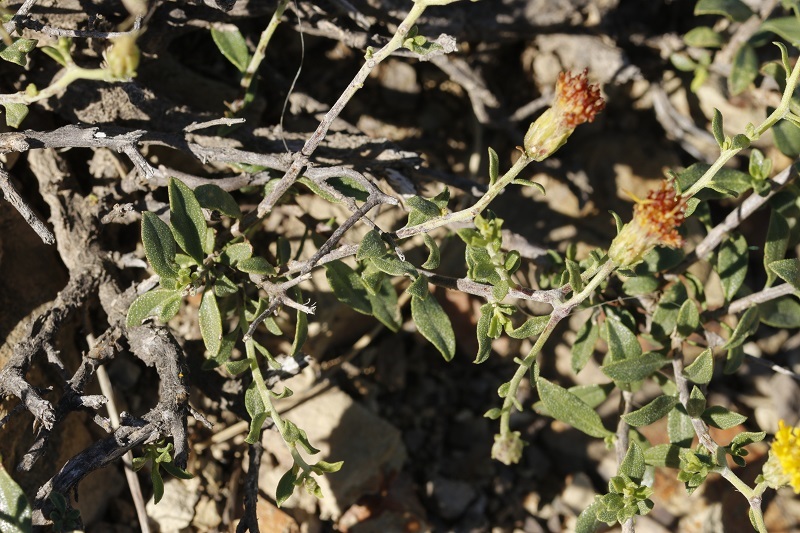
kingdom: Plantae
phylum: Tracheophyta
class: Magnoliopsida
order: Asterales
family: Asteraceae
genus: Pegolettia
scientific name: Pegolettia retrofracta
